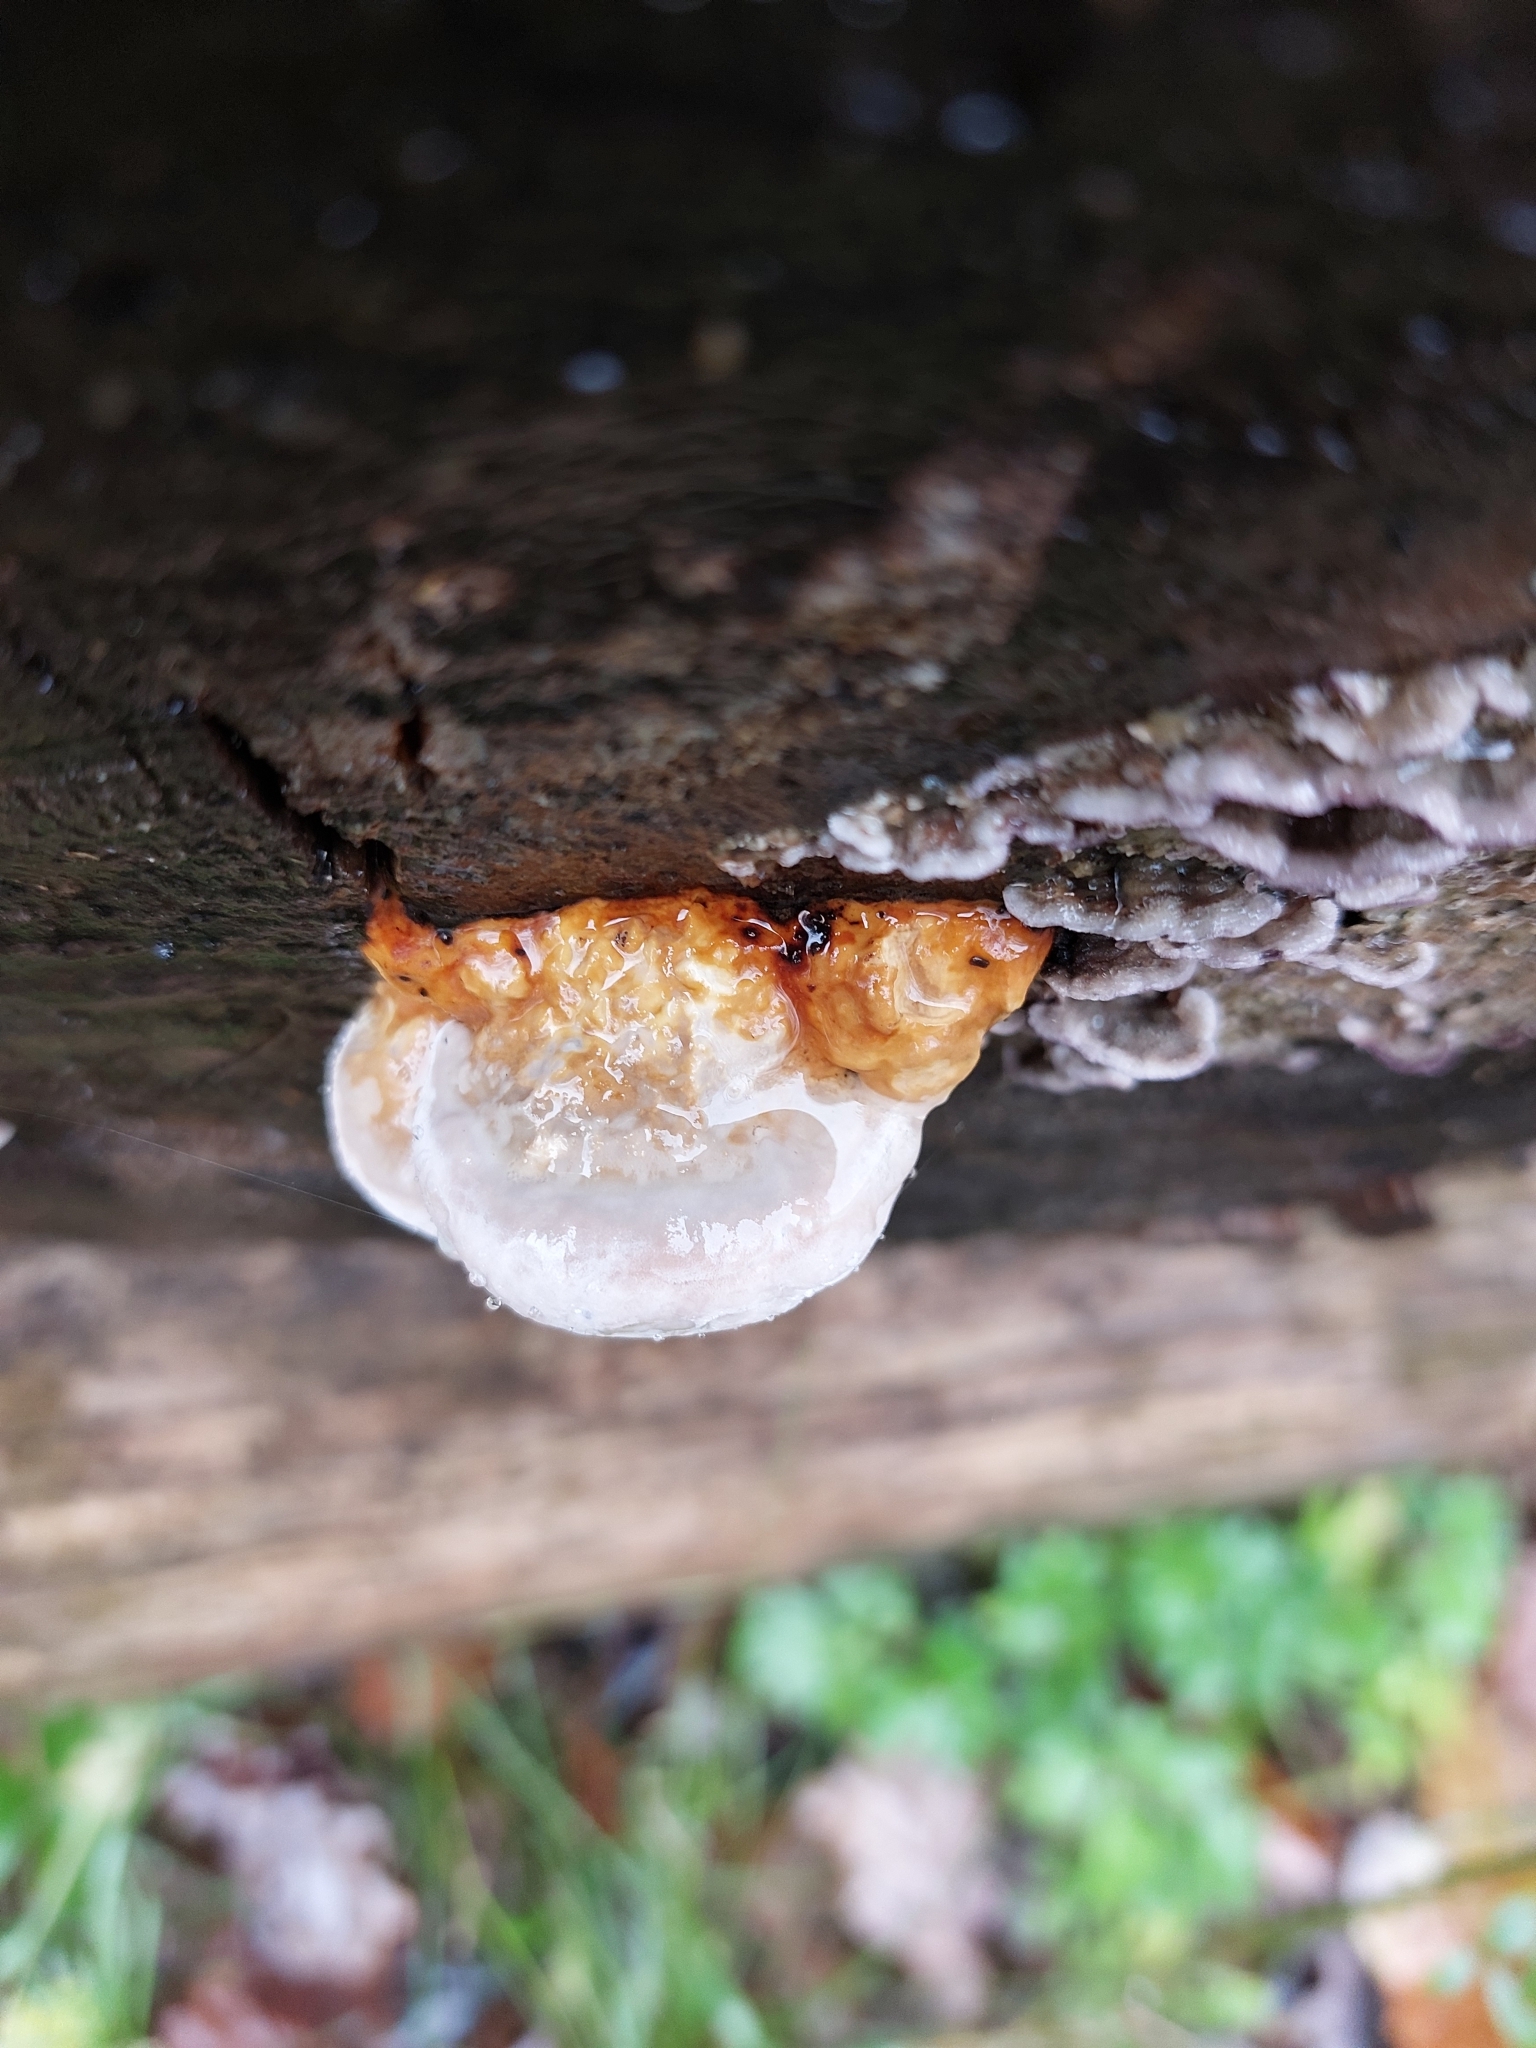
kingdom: Fungi
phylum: Basidiomycota
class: Agaricomycetes
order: Polyporales
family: Fomitopsidaceae
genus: Fomitopsis
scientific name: Fomitopsis pinicola
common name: Red-belted bracket
